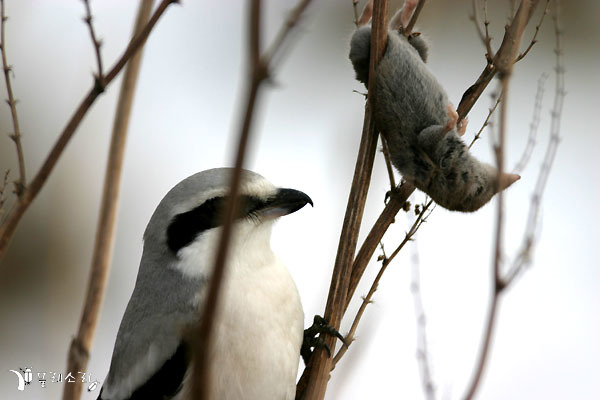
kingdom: Animalia
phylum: Chordata
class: Aves
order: Passeriformes
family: Laniidae
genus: Lanius
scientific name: Lanius sphenocercus
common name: Chinese grey shrike
